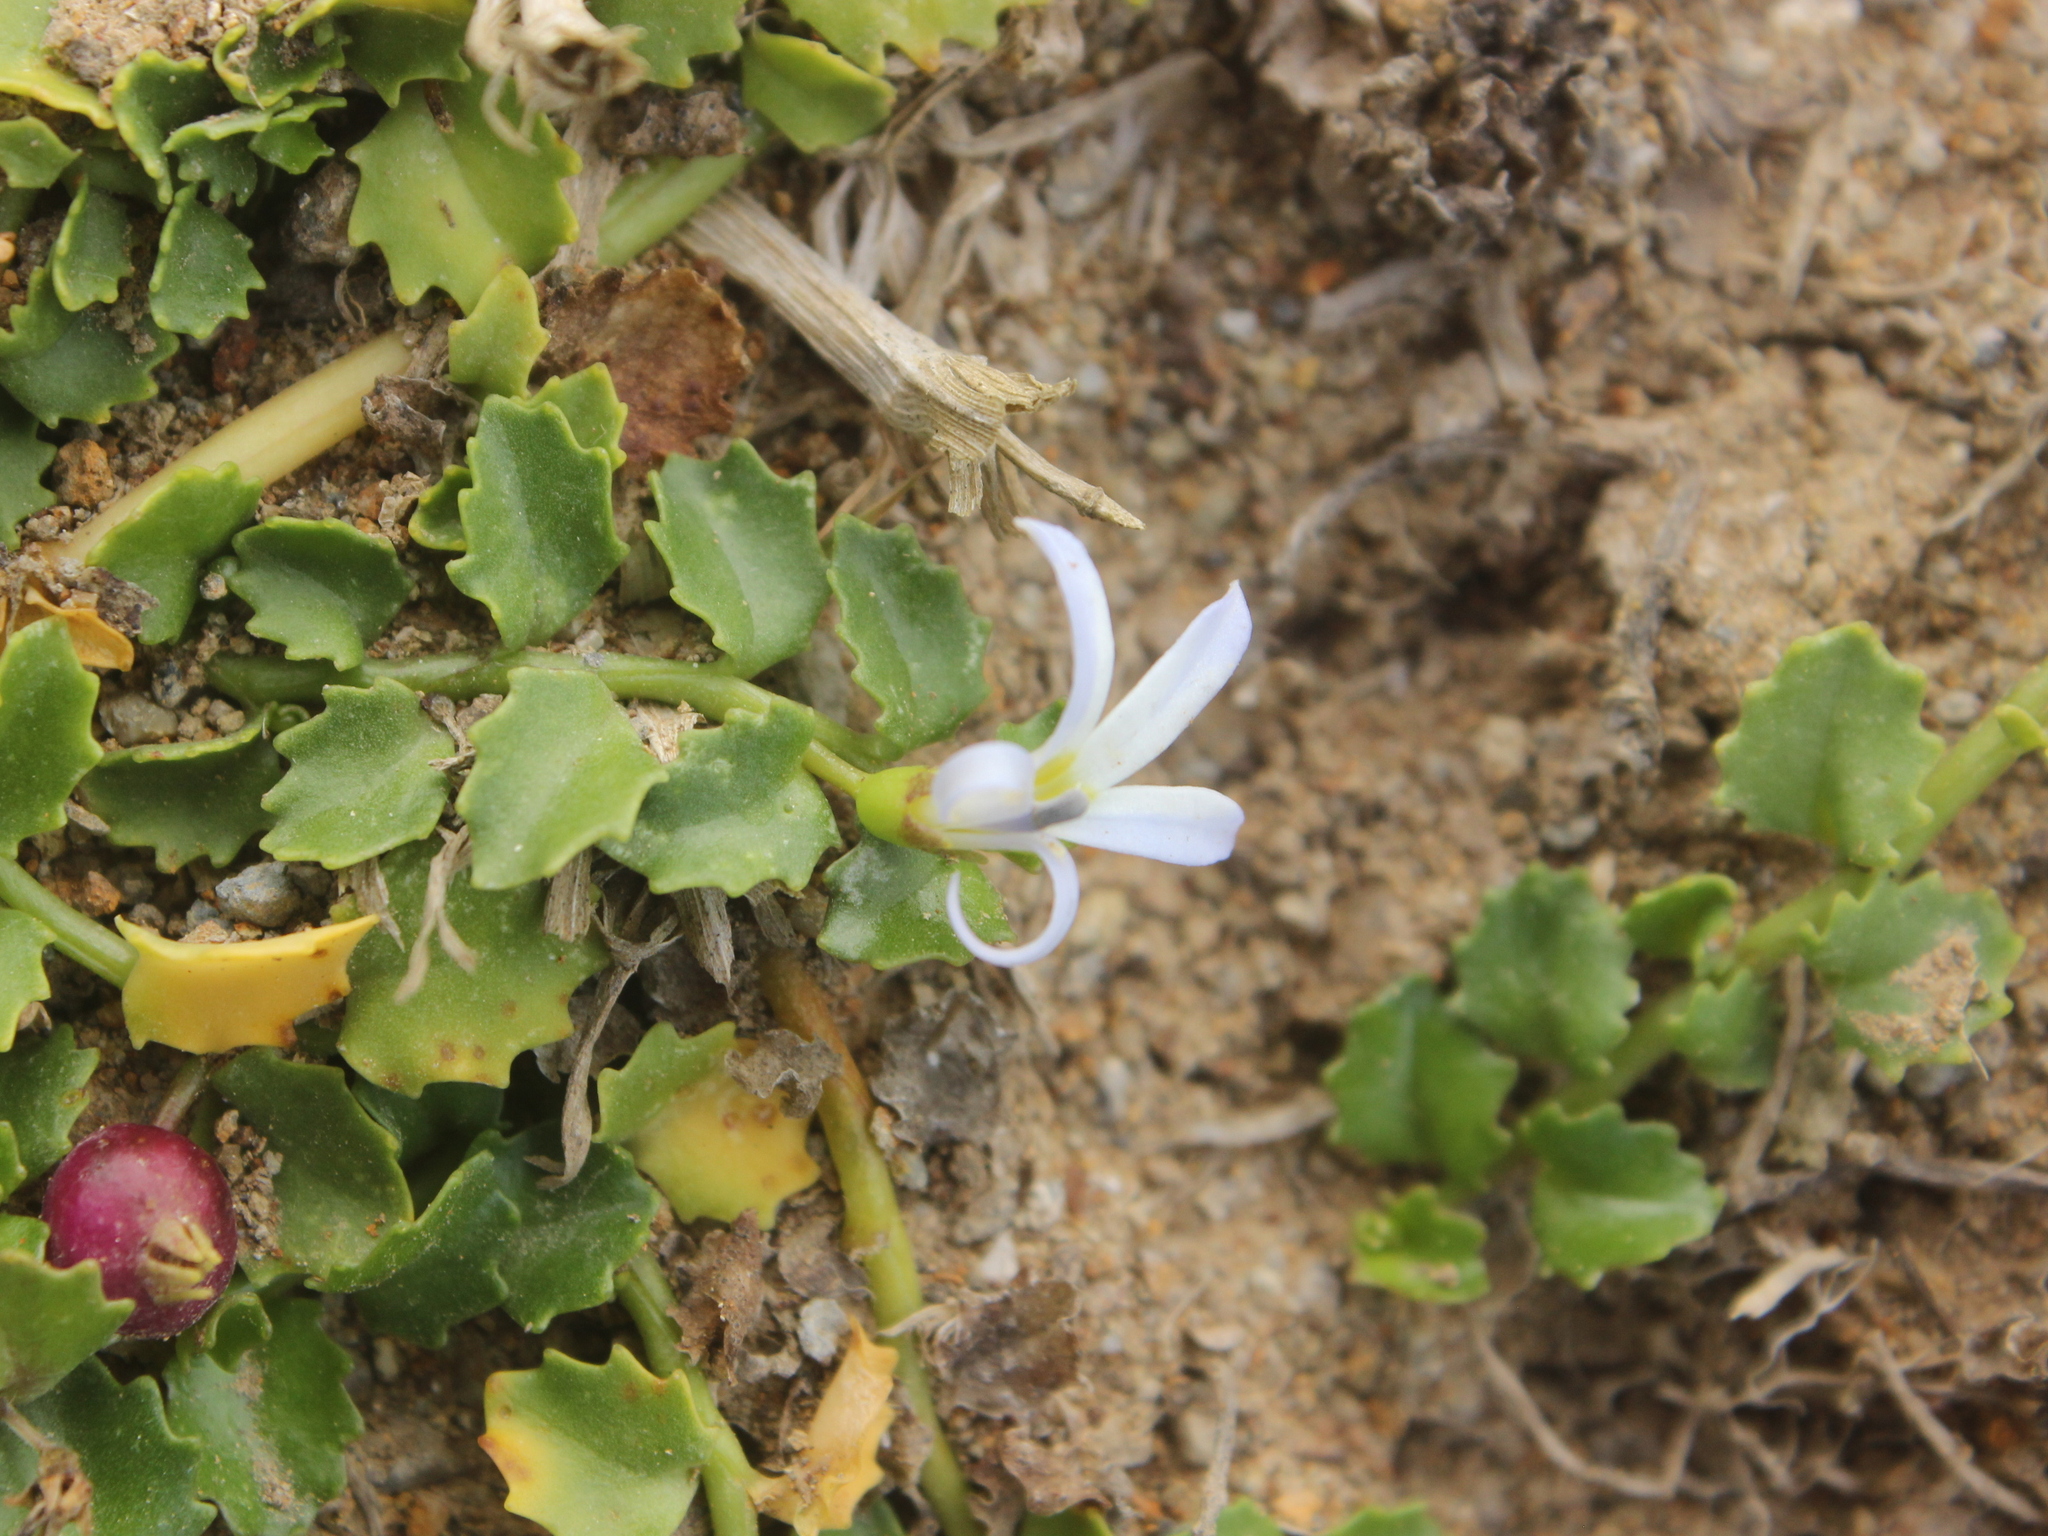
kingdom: Plantae
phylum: Tracheophyta
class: Magnoliopsida
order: Asterales
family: Campanulaceae
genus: Lobelia
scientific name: Lobelia arenaria
